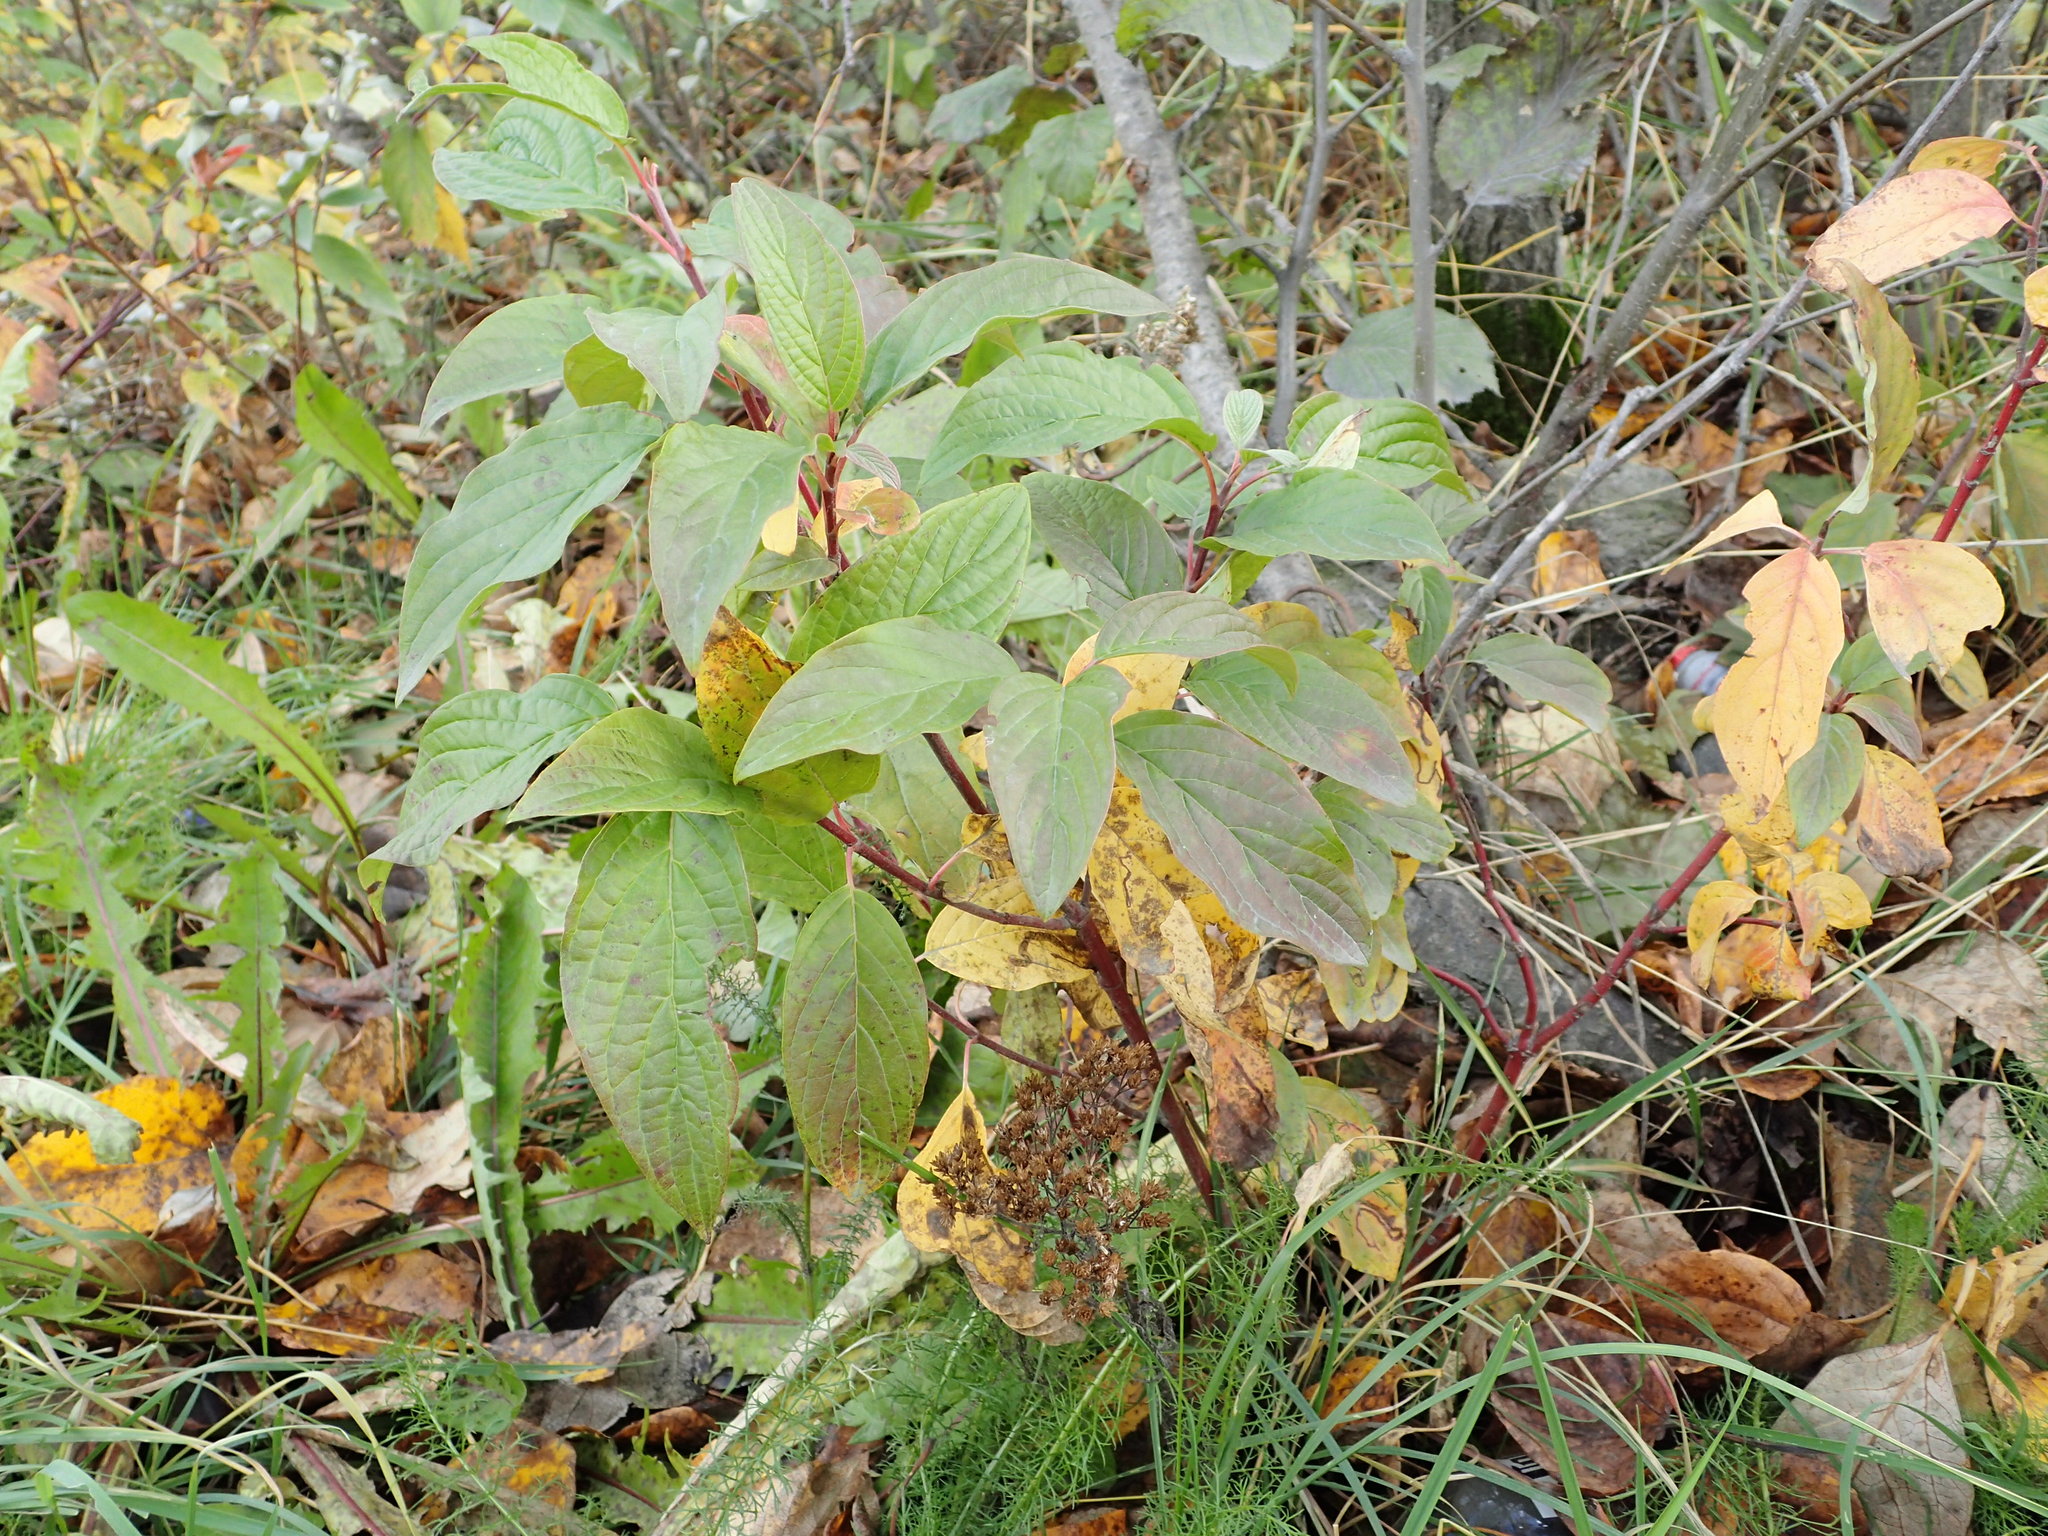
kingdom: Plantae
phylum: Tracheophyta
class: Magnoliopsida
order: Cornales
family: Cornaceae
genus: Cornus
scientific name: Cornus sericea
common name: Red-osier dogwood
